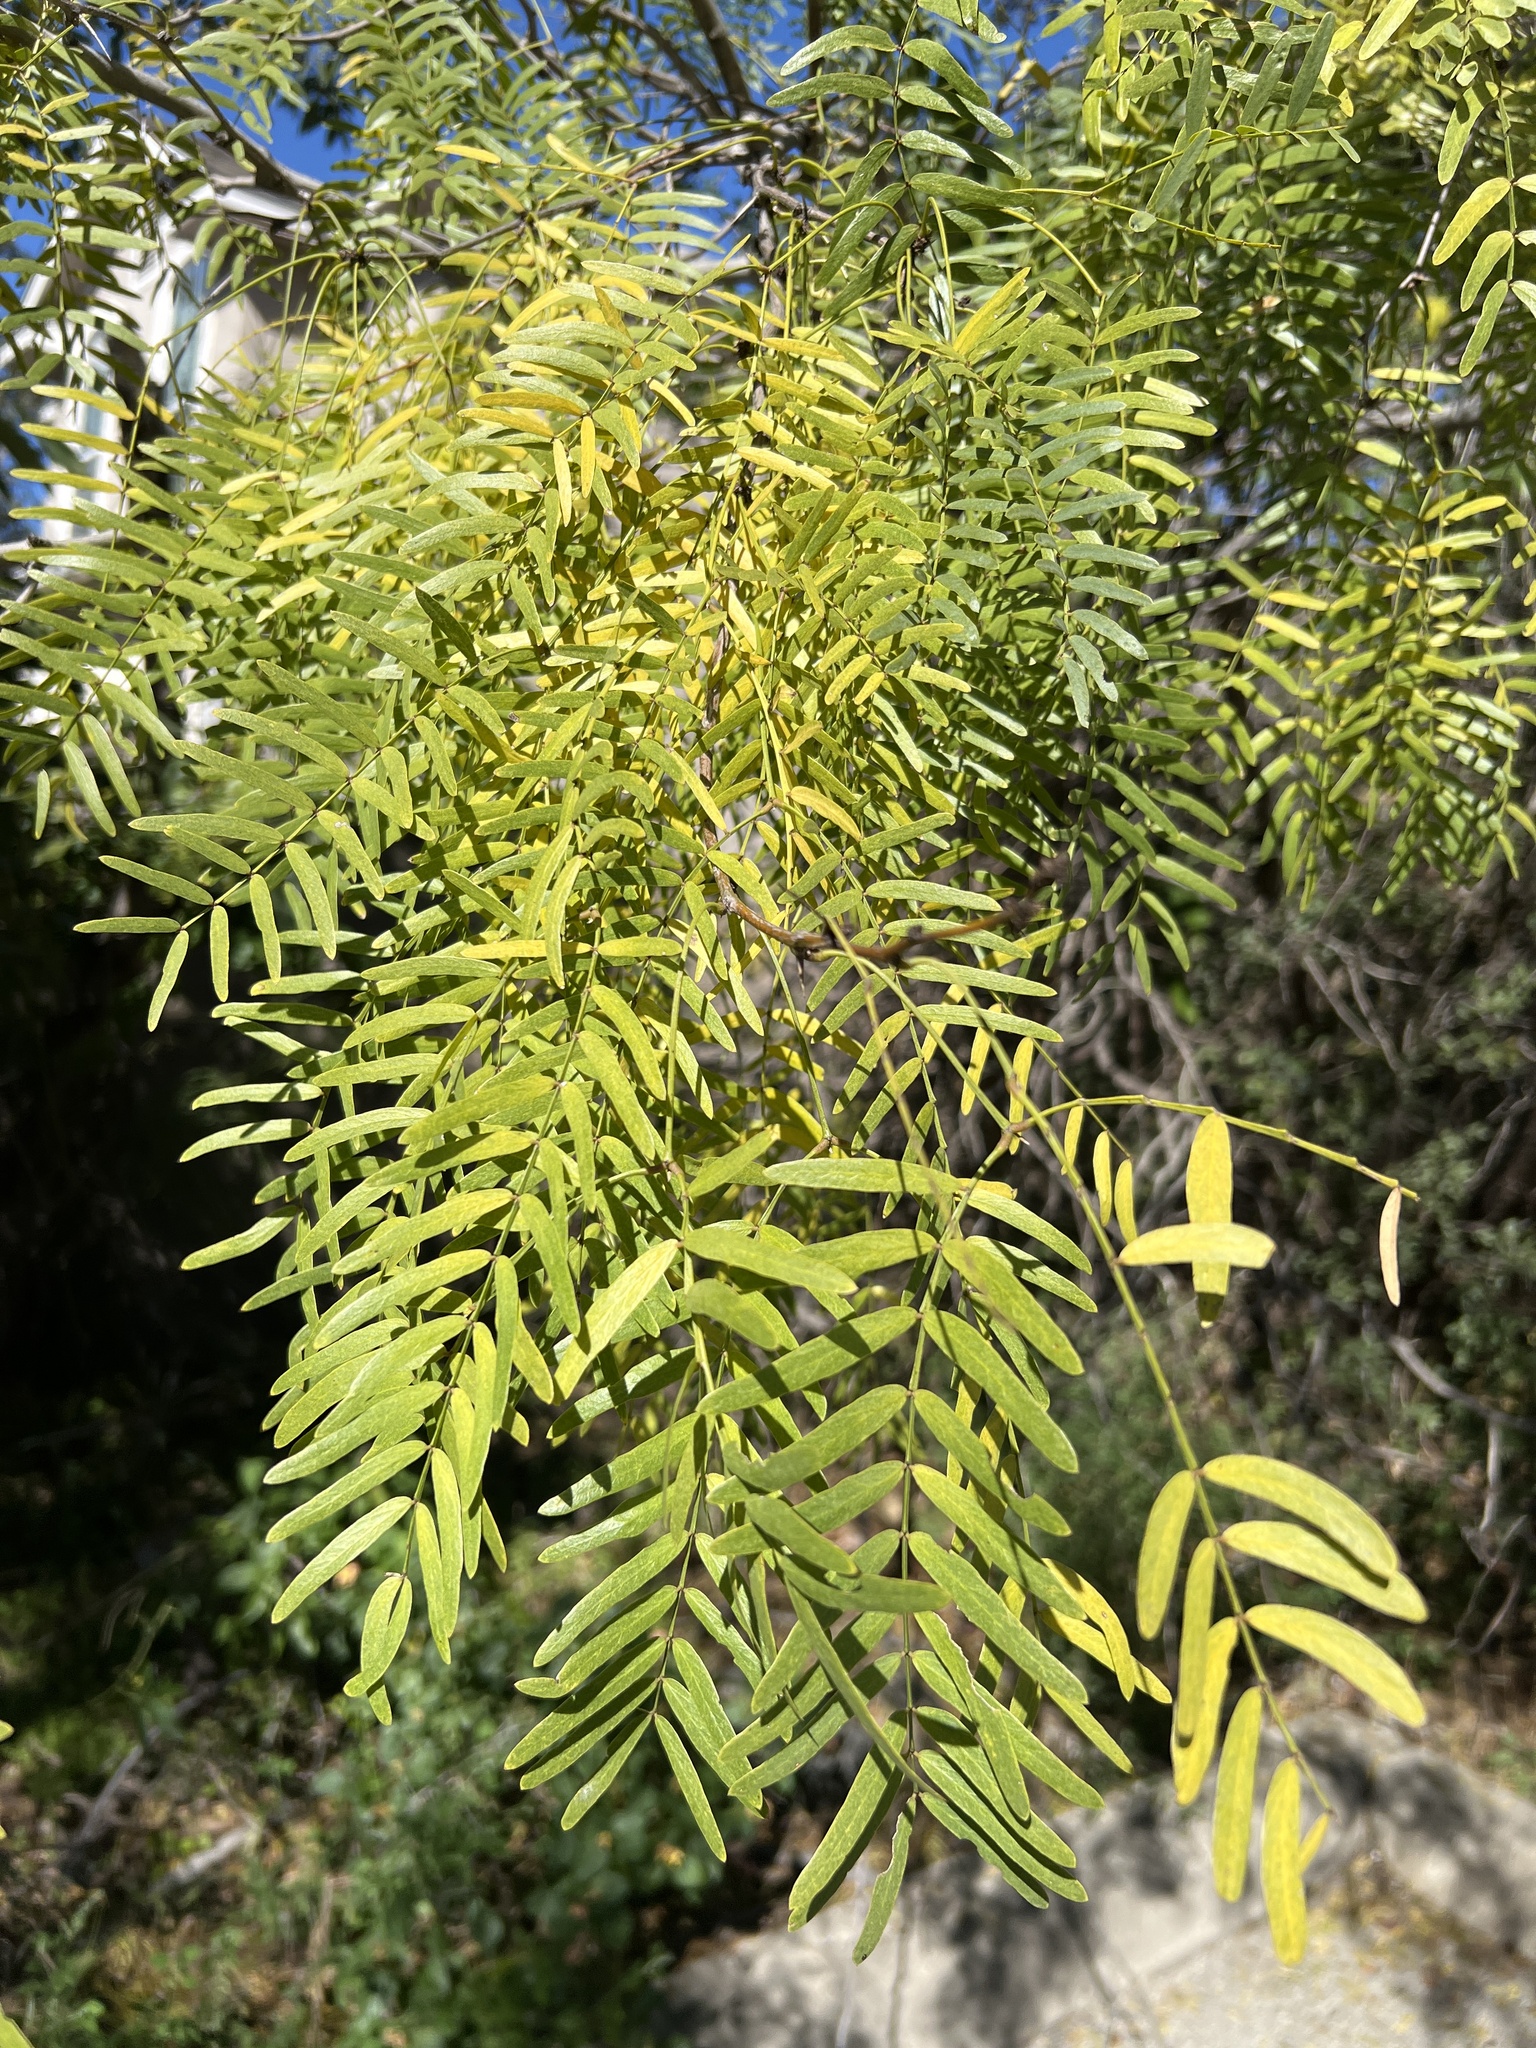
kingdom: Plantae
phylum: Tracheophyta
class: Magnoliopsida
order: Fabales
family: Fabaceae
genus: Prosopis
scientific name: Prosopis glandulosa
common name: Honey mesquite
